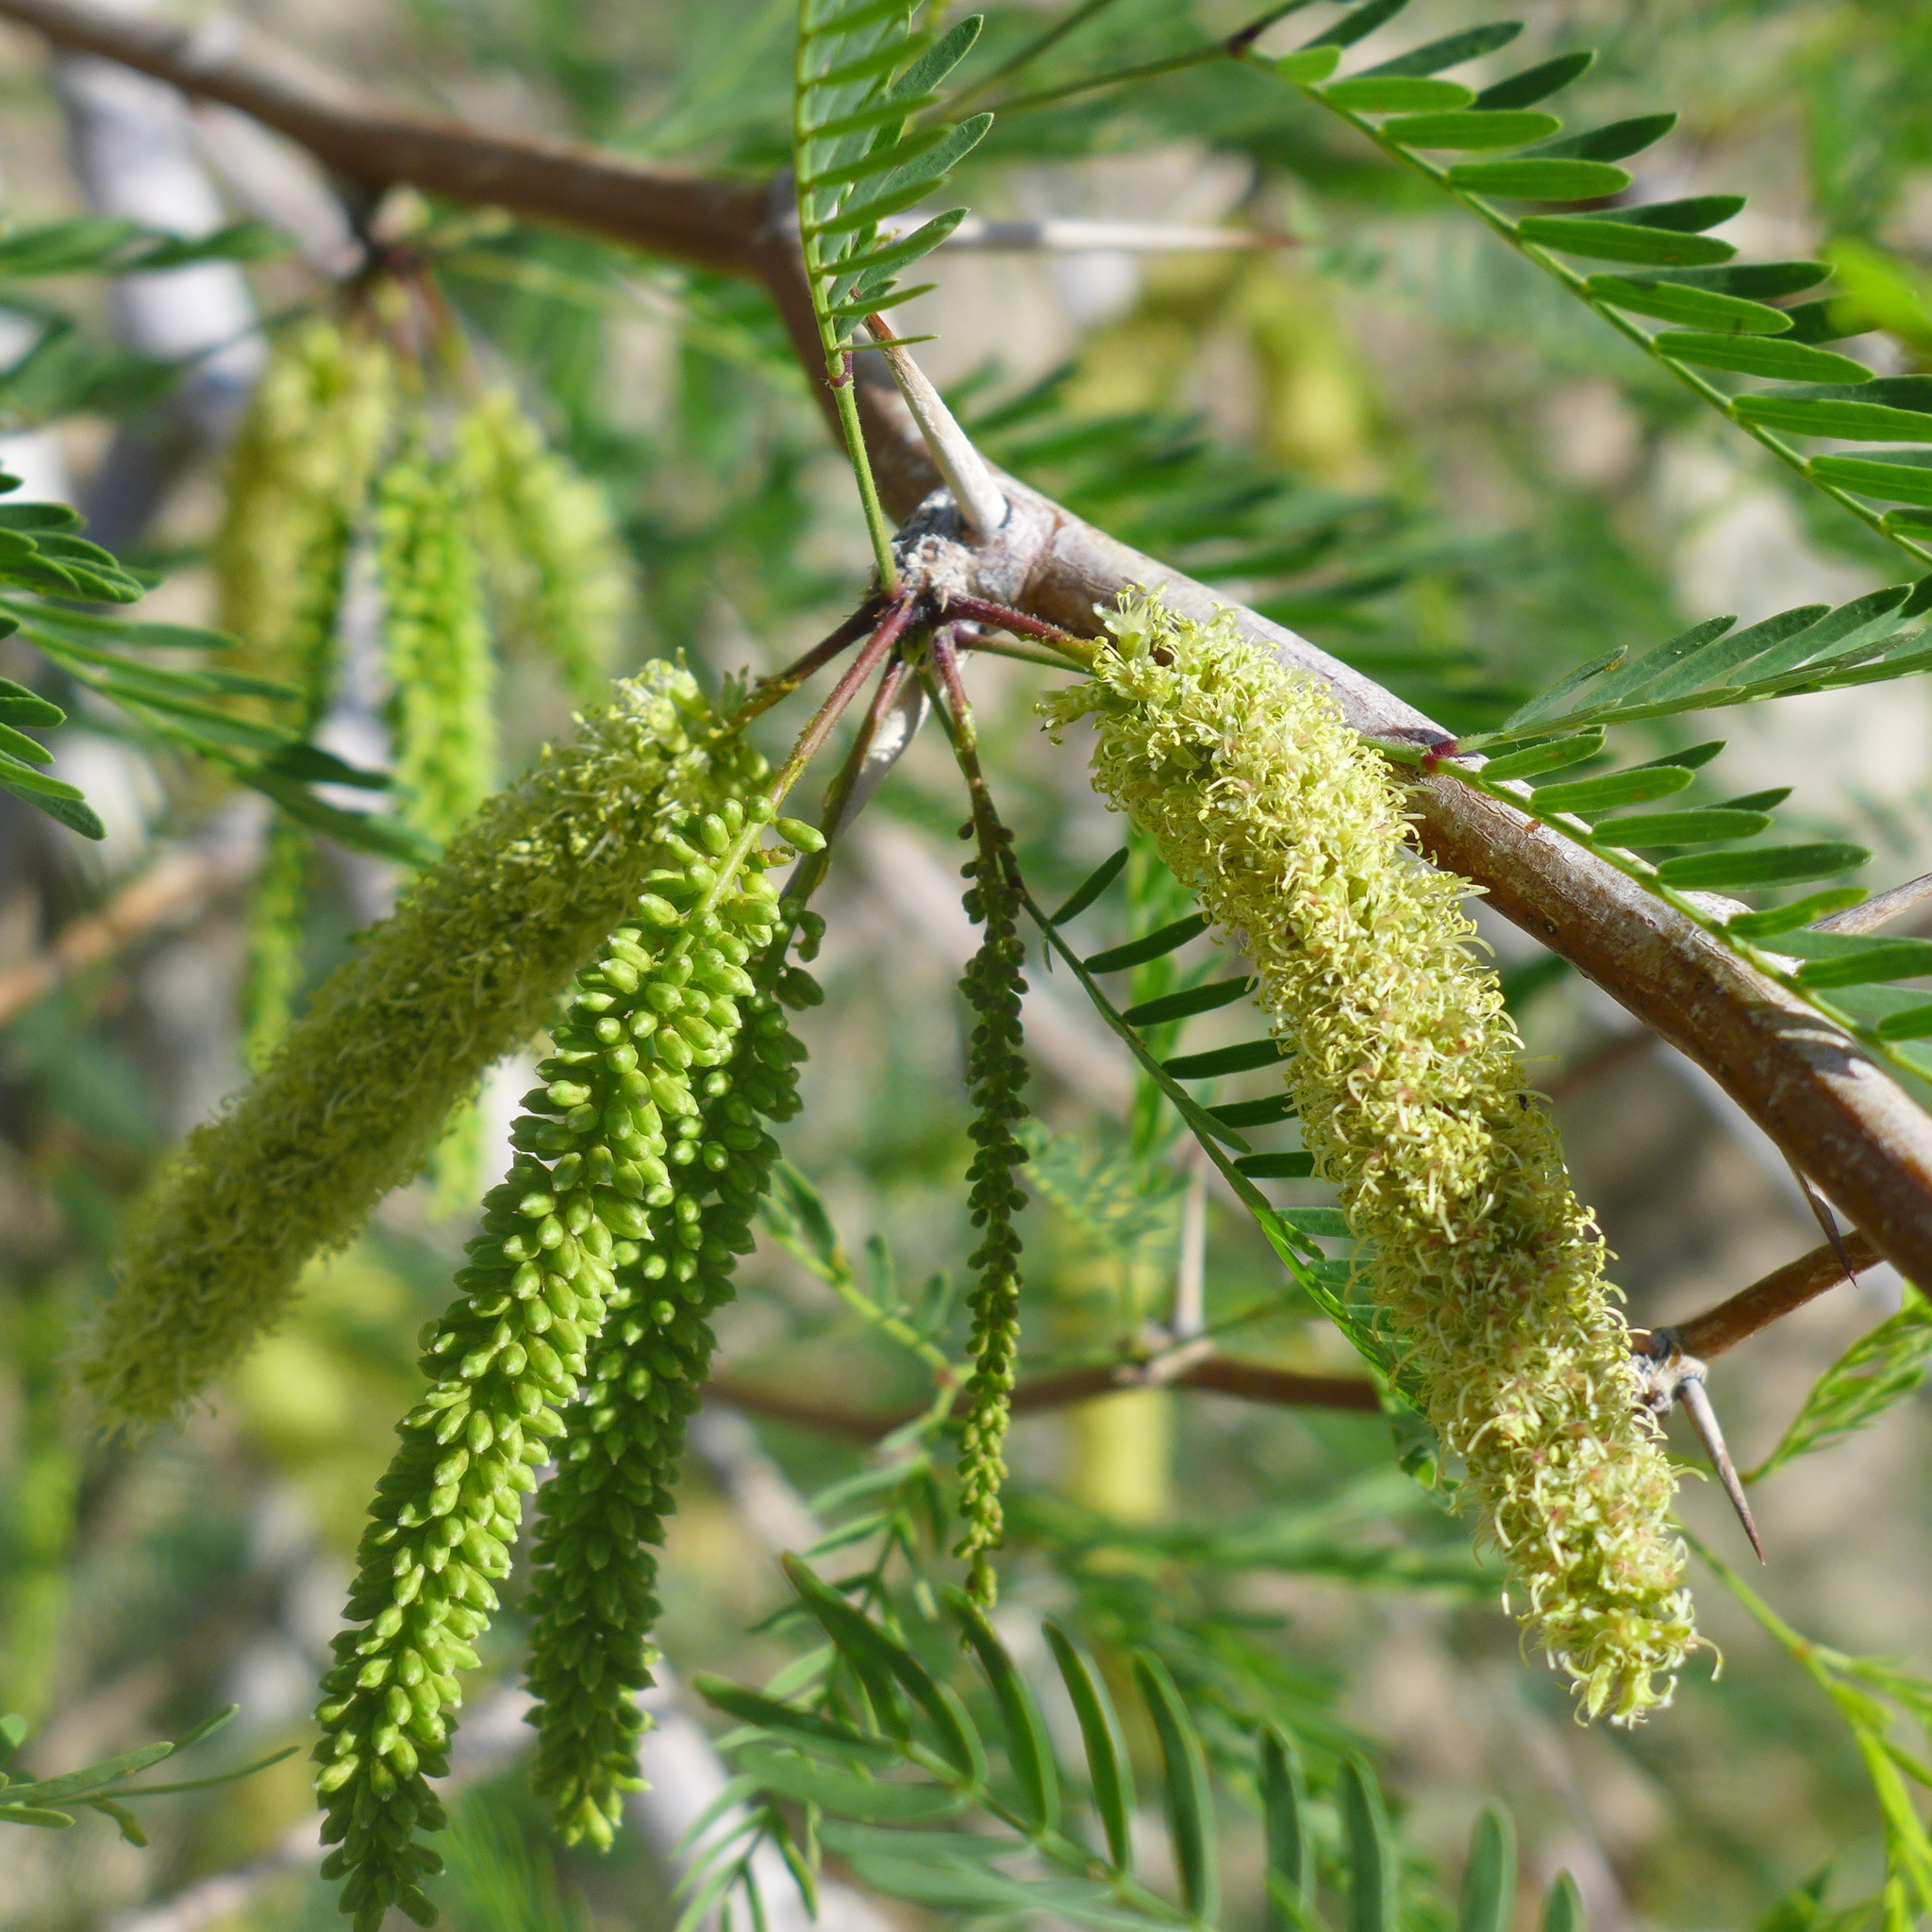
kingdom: Plantae
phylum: Tracheophyta
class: Magnoliopsida
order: Fabales
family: Fabaceae
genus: Prosopis
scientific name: Prosopis glandulosa
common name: Honey mesquite
